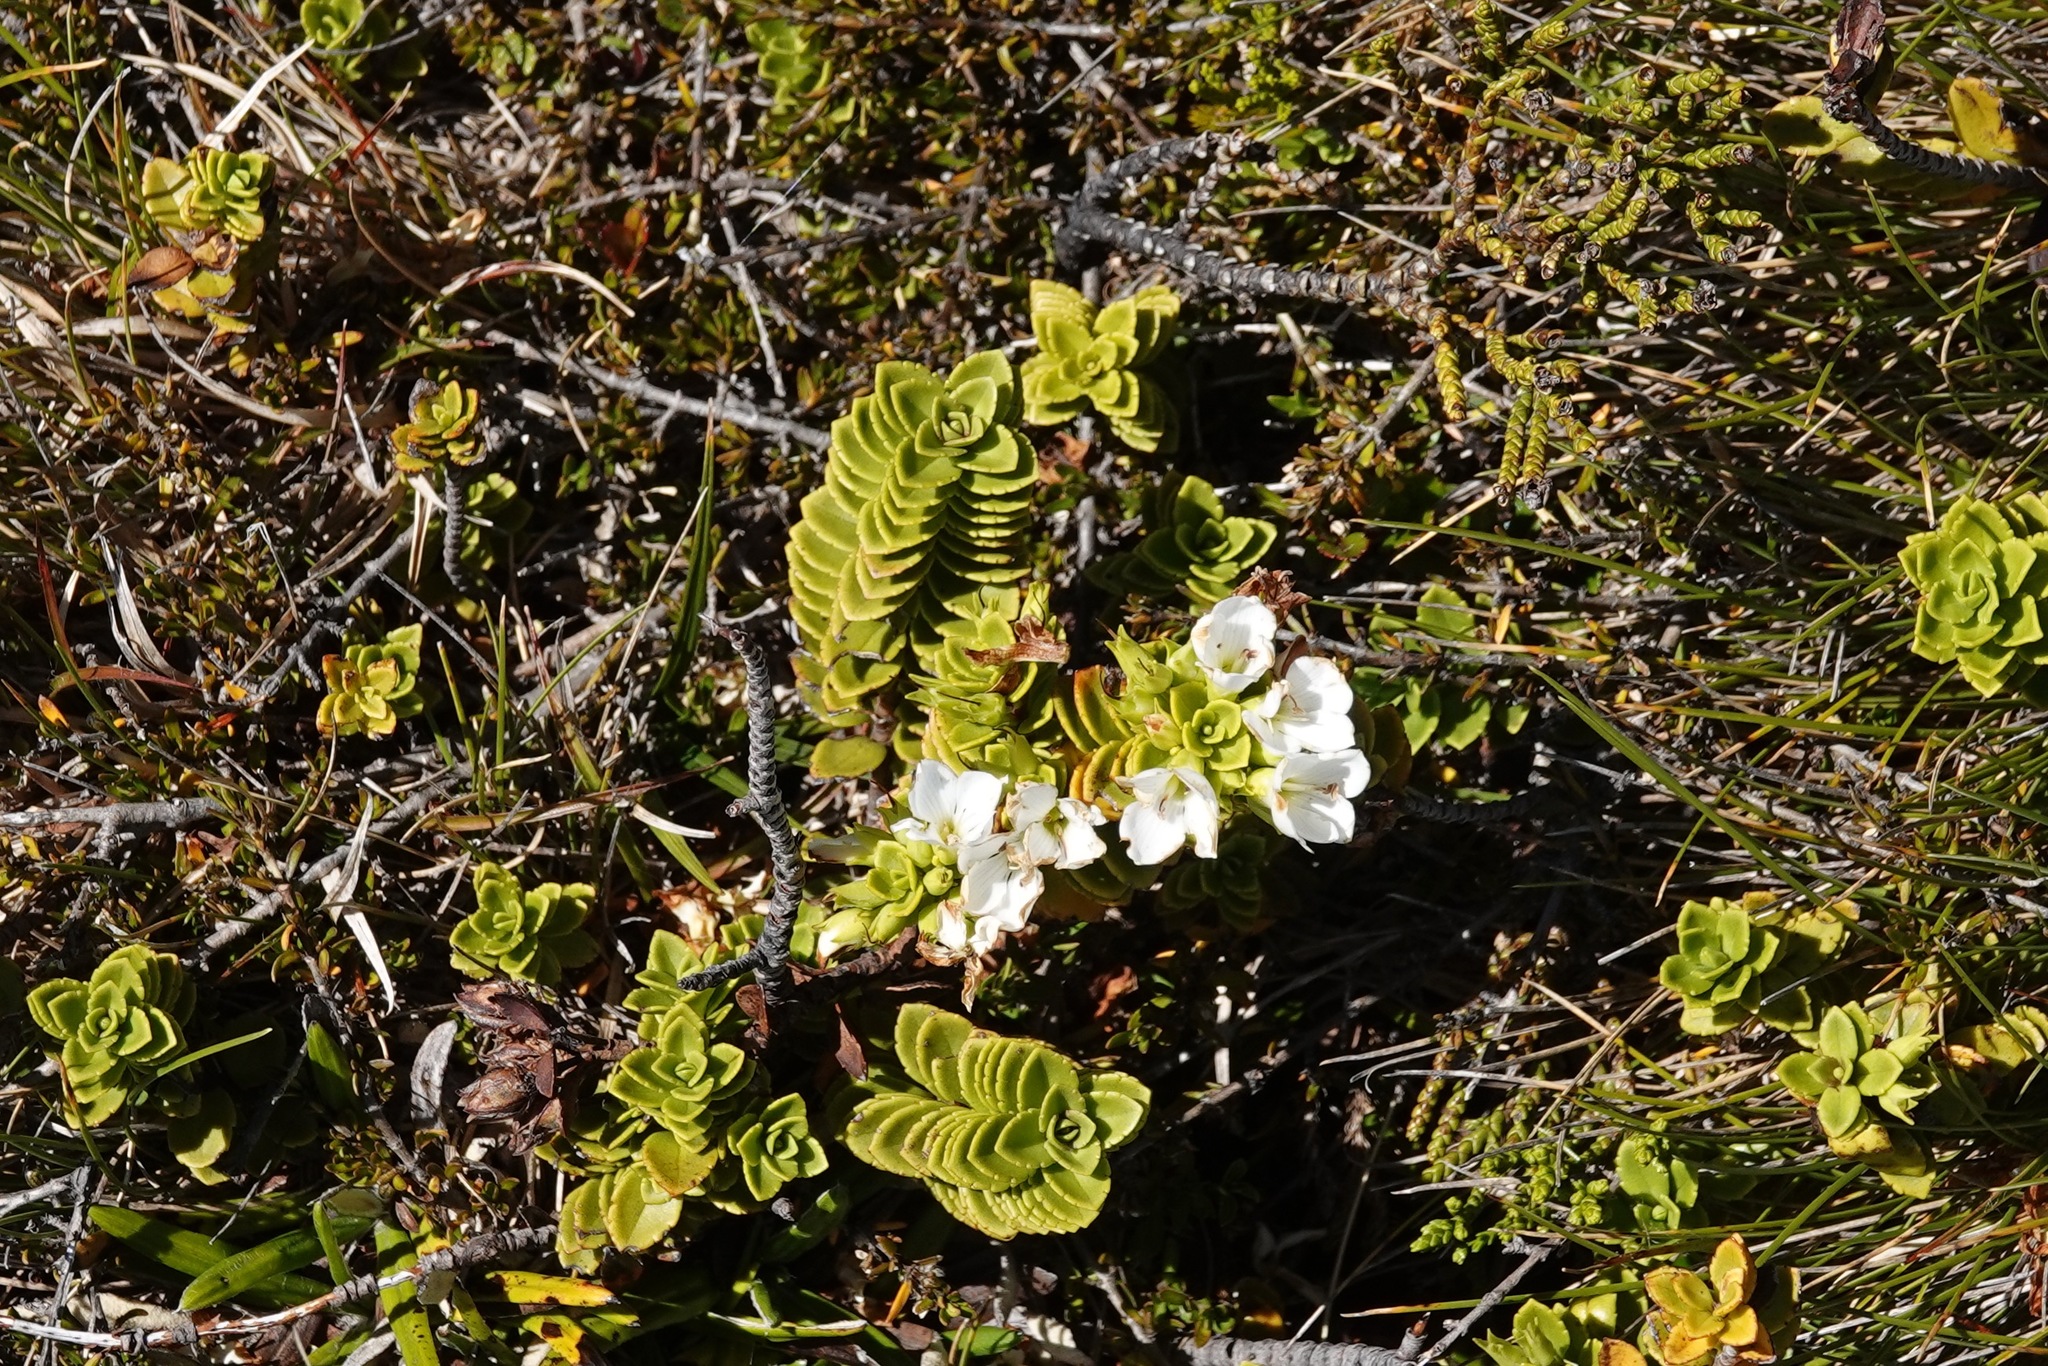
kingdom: Plantae
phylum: Tracheophyta
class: Magnoliopsida
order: Lamiales
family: Plantaginaceae
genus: Veronica
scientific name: Veronica macrantha
